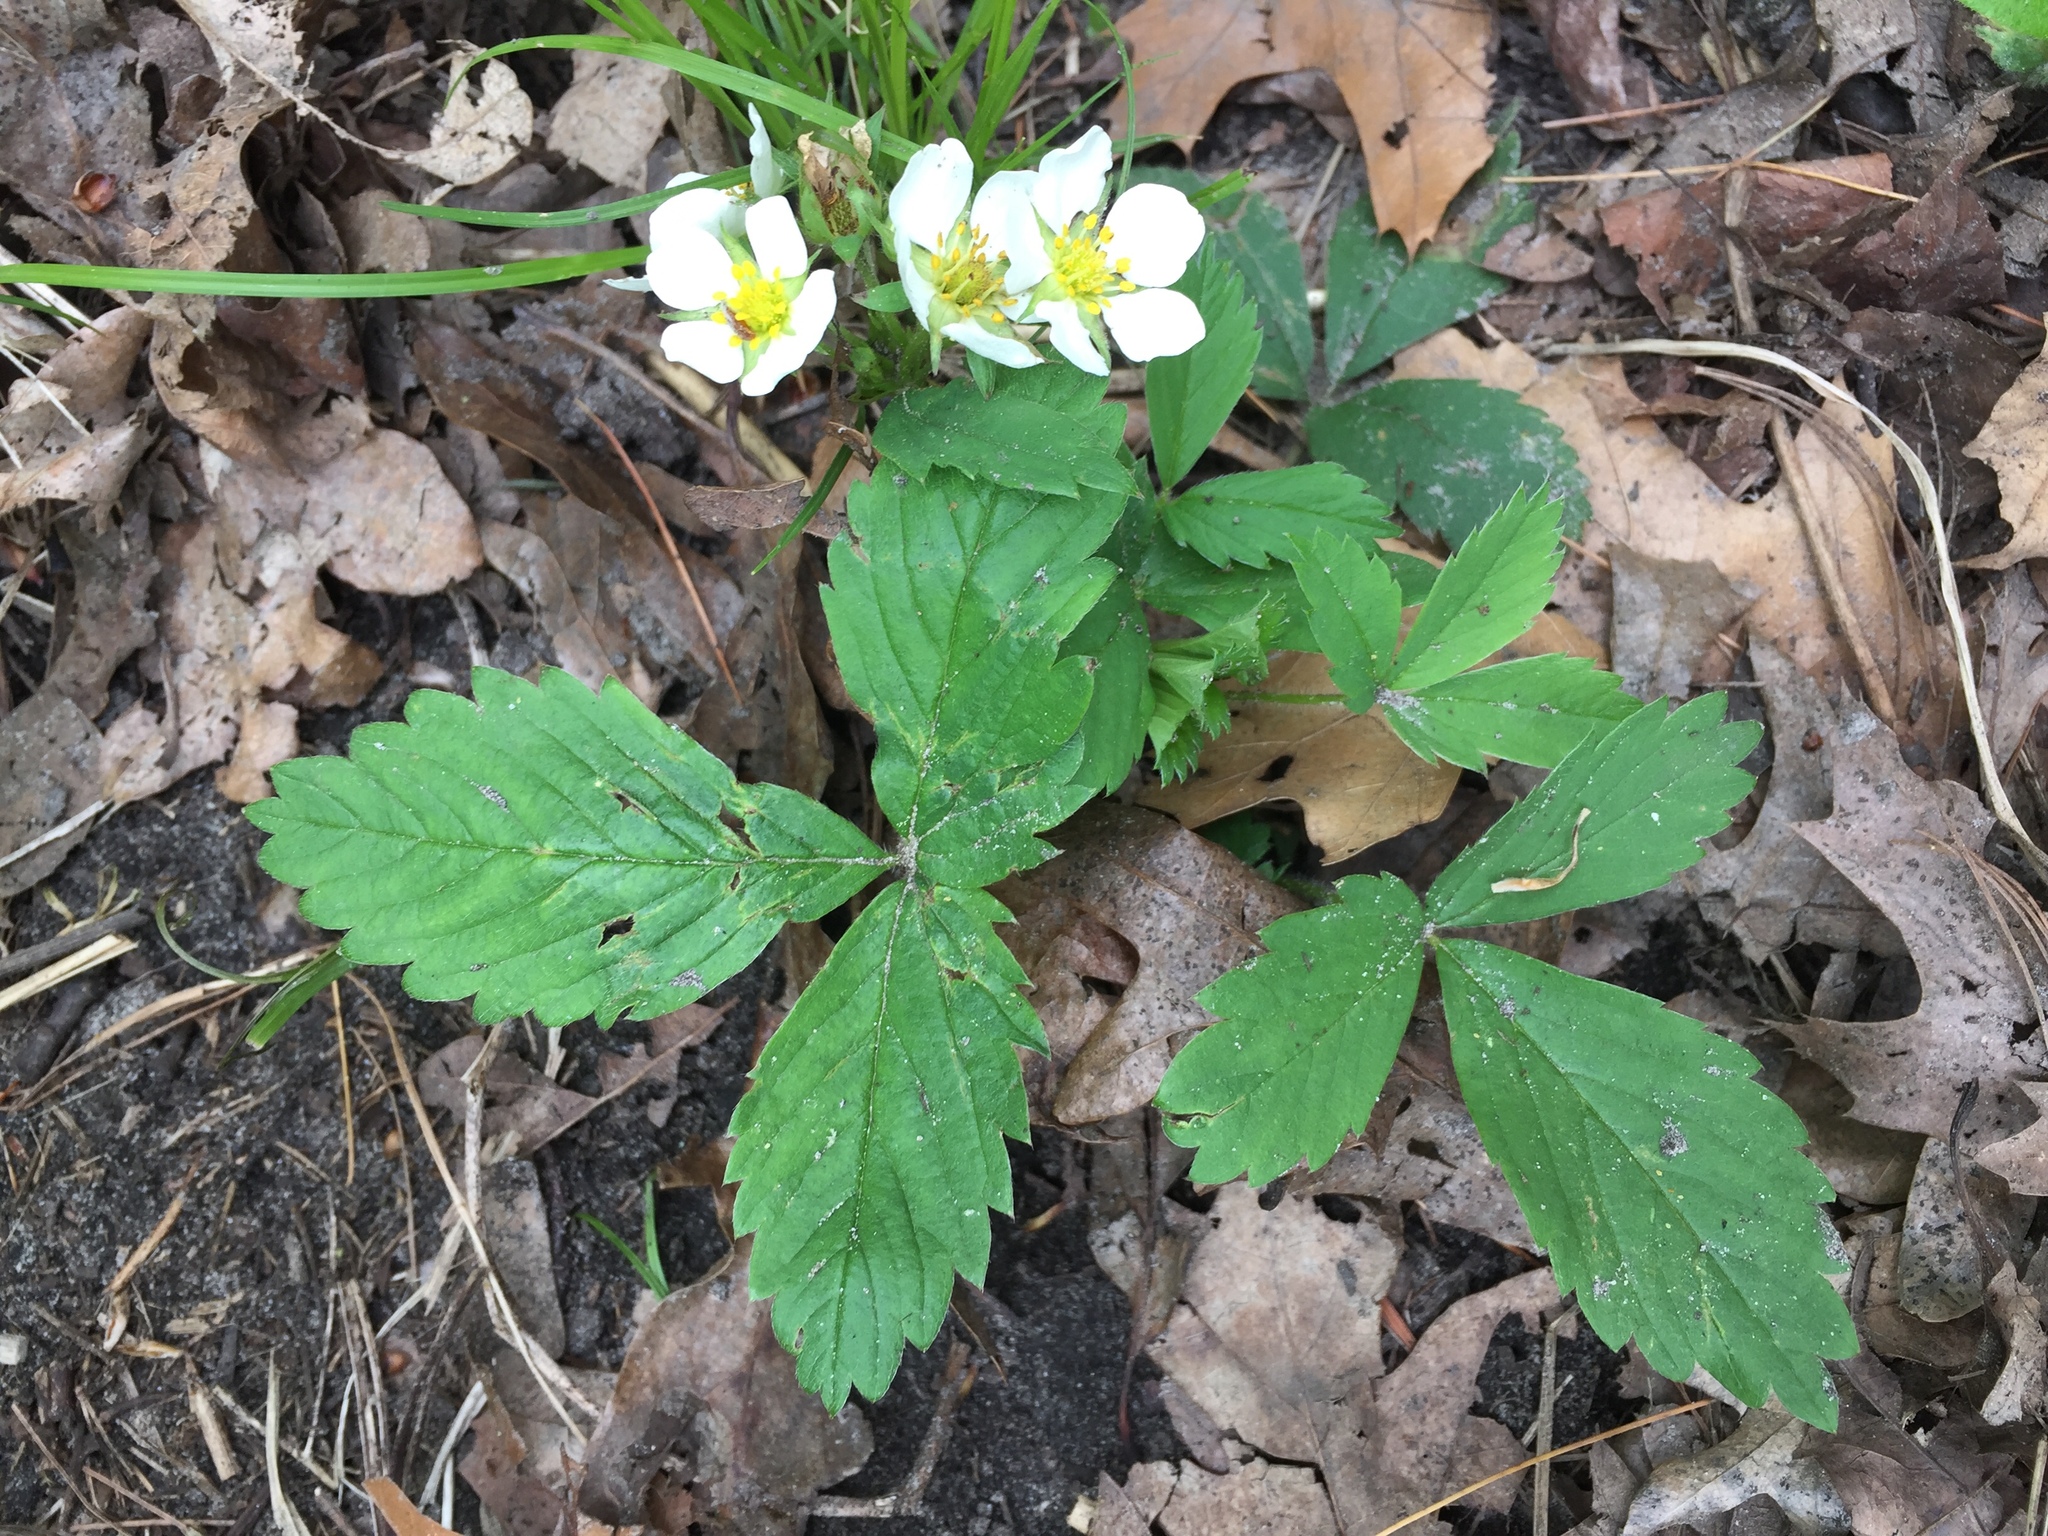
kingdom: Plantae
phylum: Tracheophyta
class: Magnoliopsida
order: Rosales
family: Rosaceae
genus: Fragaria
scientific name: Fragaria vesca
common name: Wild strawberry
